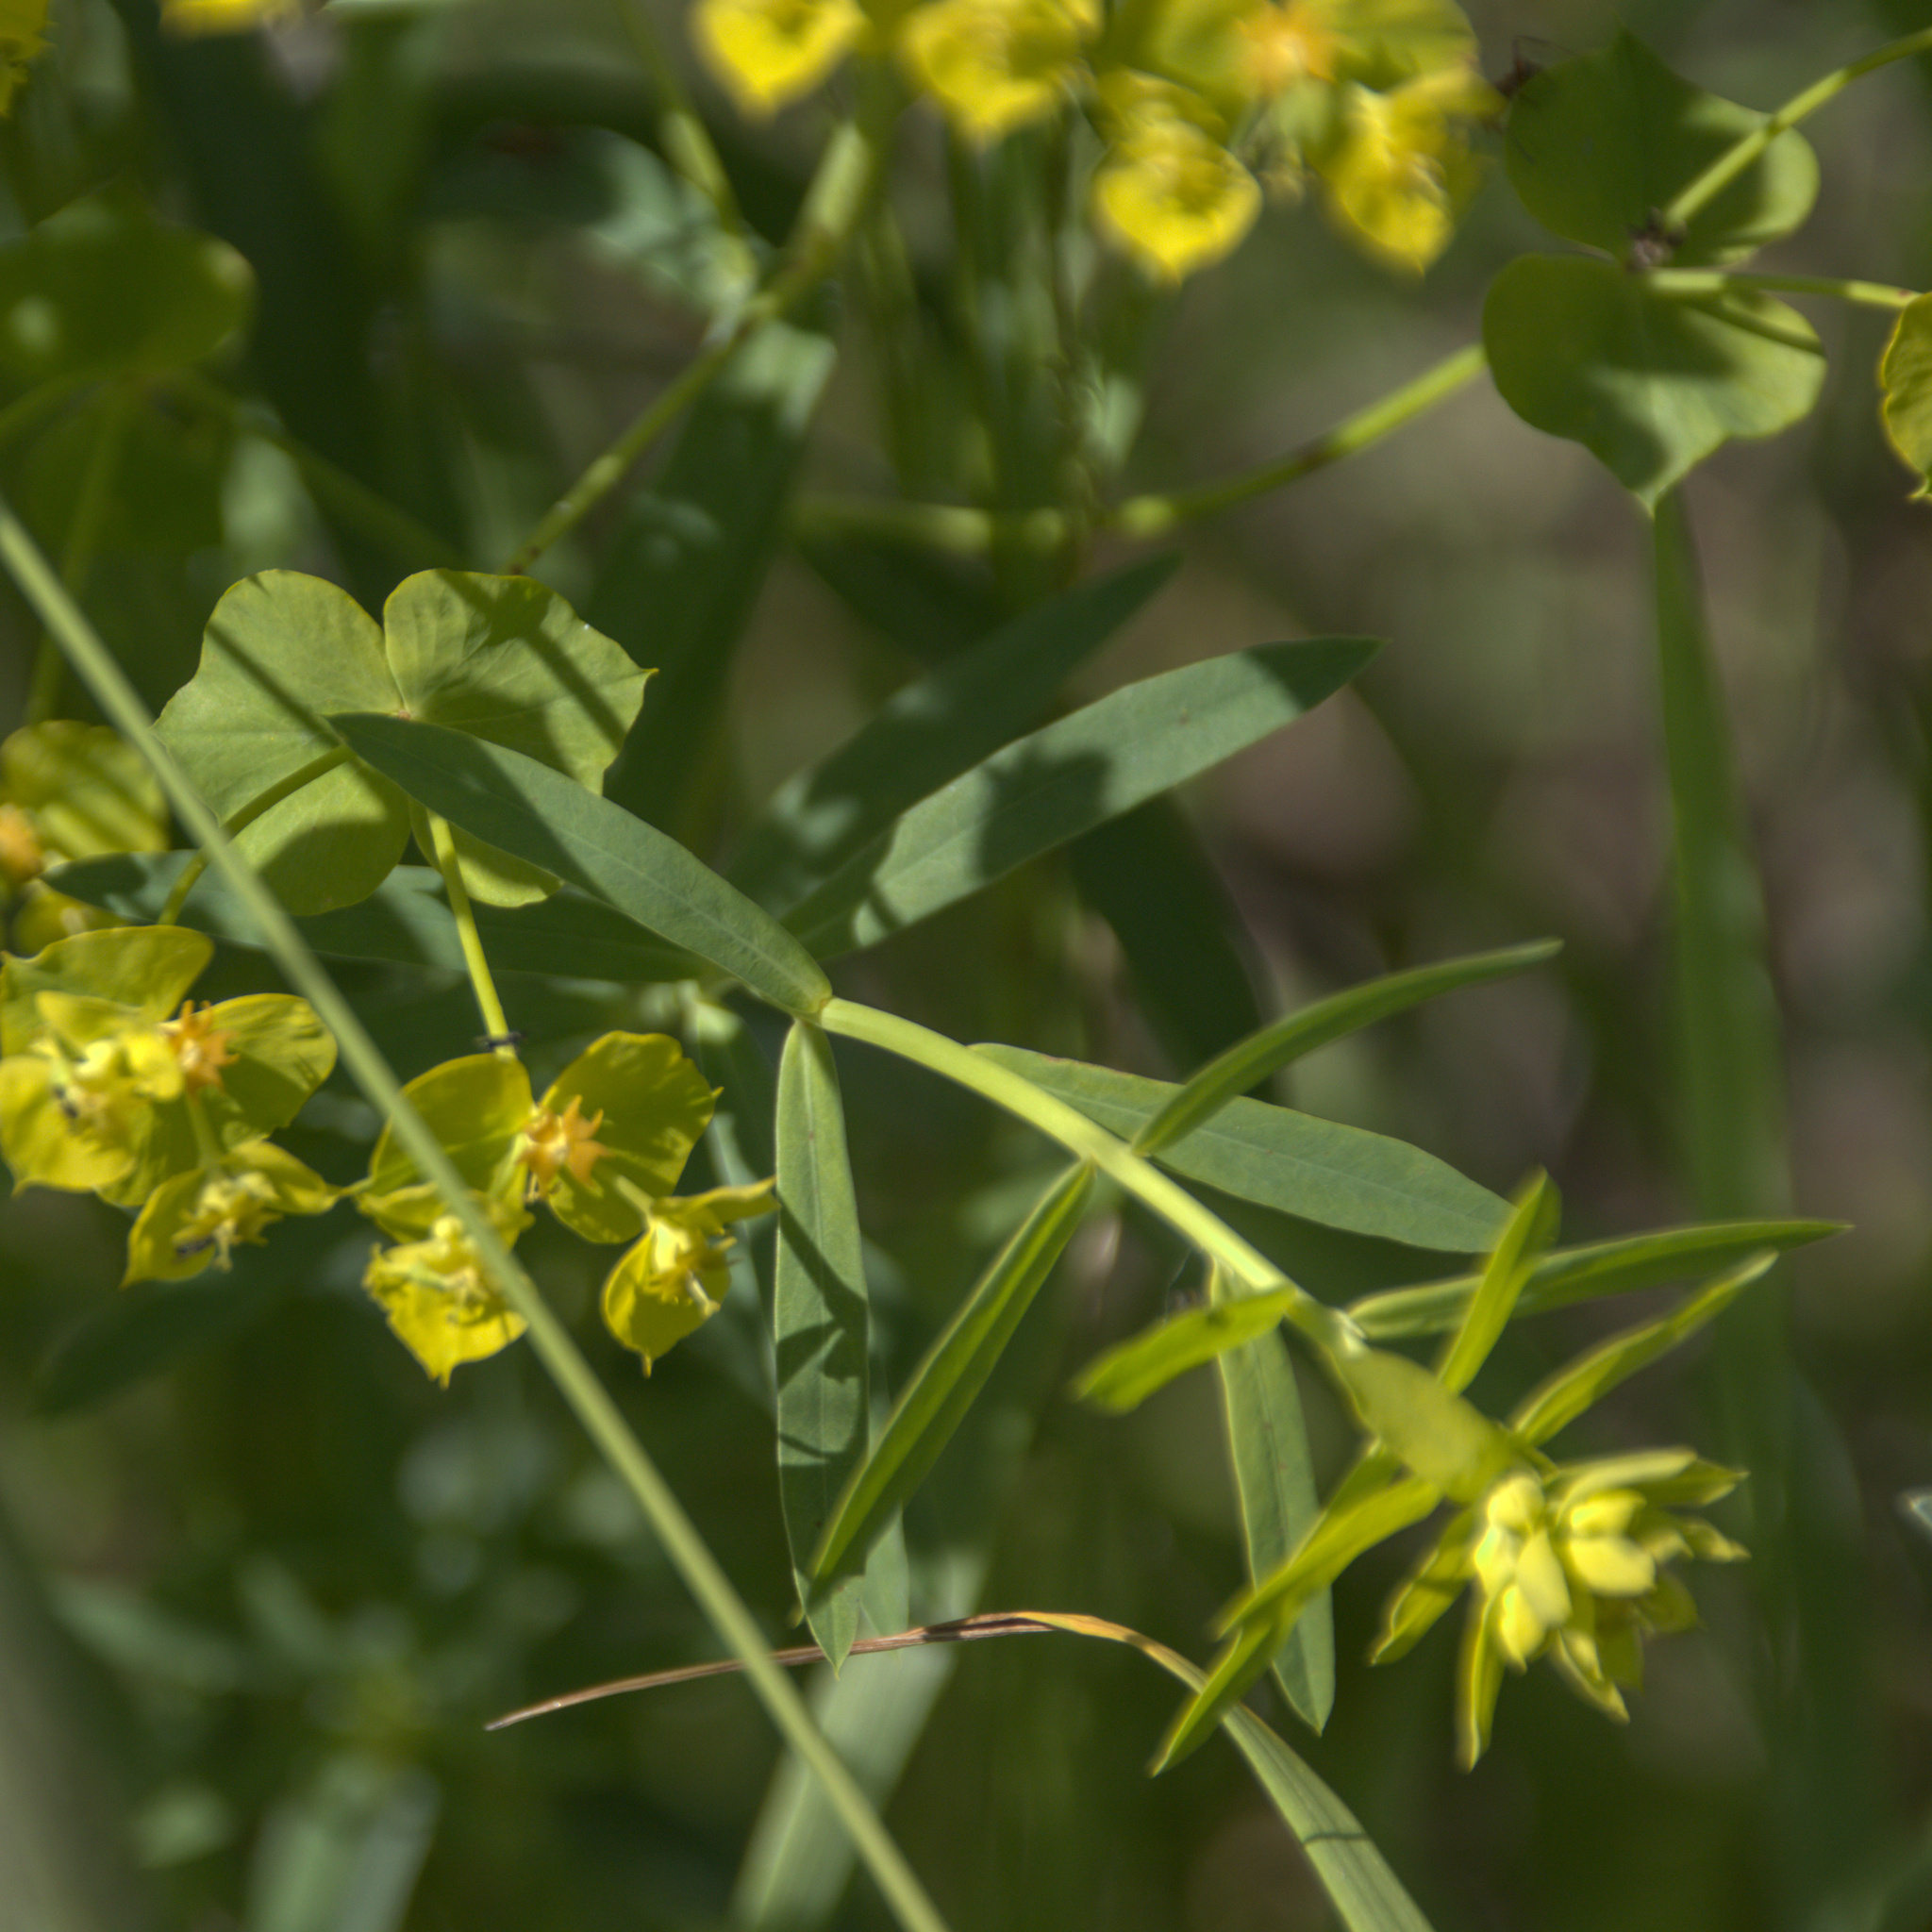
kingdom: Plantae
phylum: Tracheophyta
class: Magnoliopsida
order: Malpighiales
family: Euphorbiaceae
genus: Euphorbia
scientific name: Euphorbia virgata
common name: Leafy spurge
